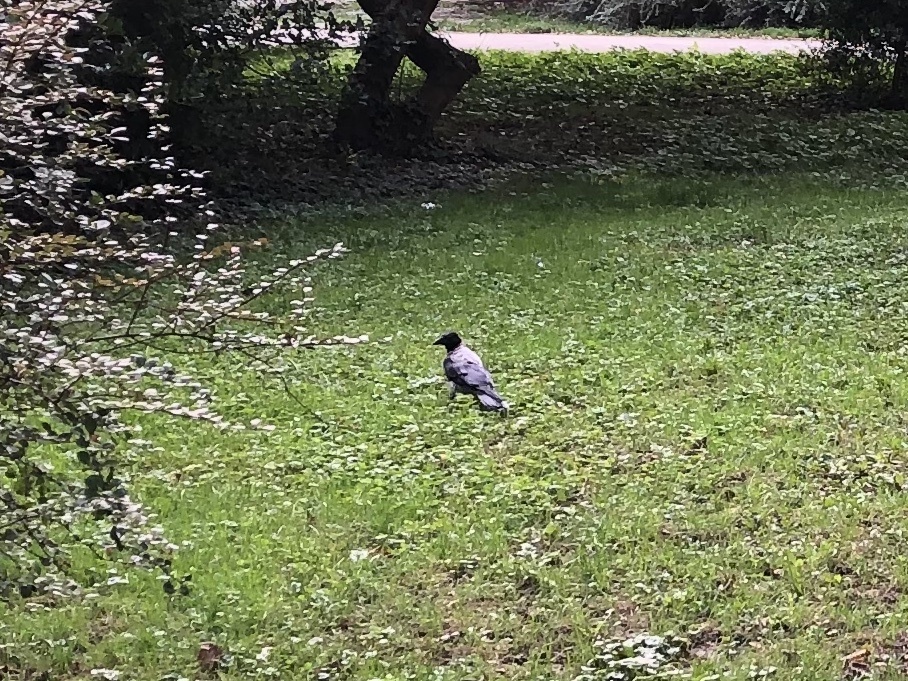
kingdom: Animalia
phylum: Chordata
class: Aves
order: Passeriformes
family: Corvidae
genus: Corvus
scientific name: Corvus cornix
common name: Hooded crow
